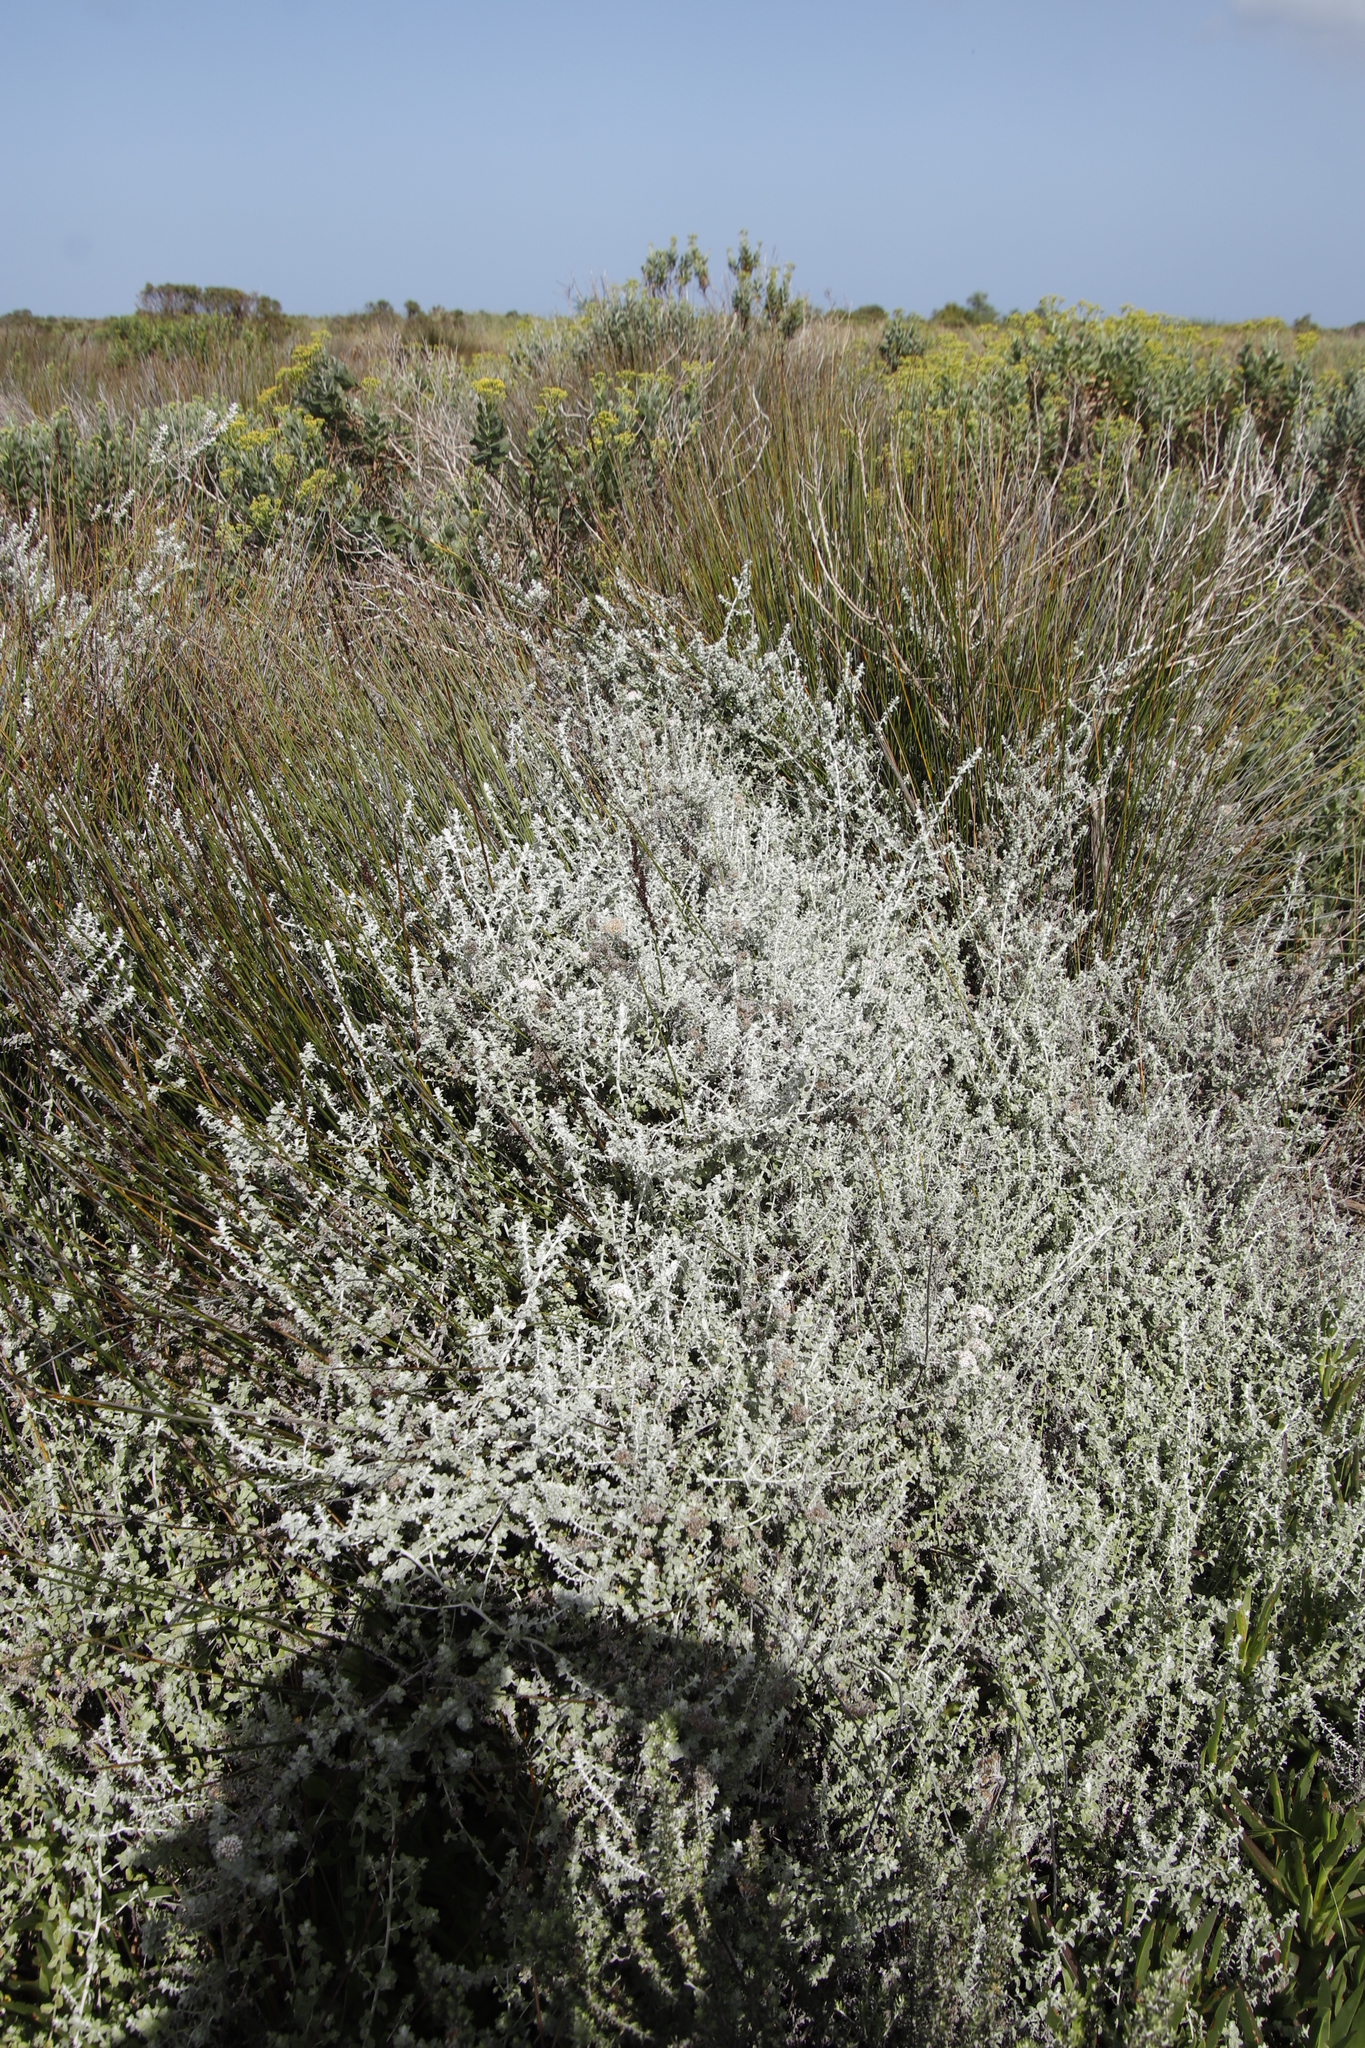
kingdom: Plantae
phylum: Tracheophyta
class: Magnoliopsida
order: Asterales
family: Asteraceae
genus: Seriphium
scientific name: Seriphium plumosum
